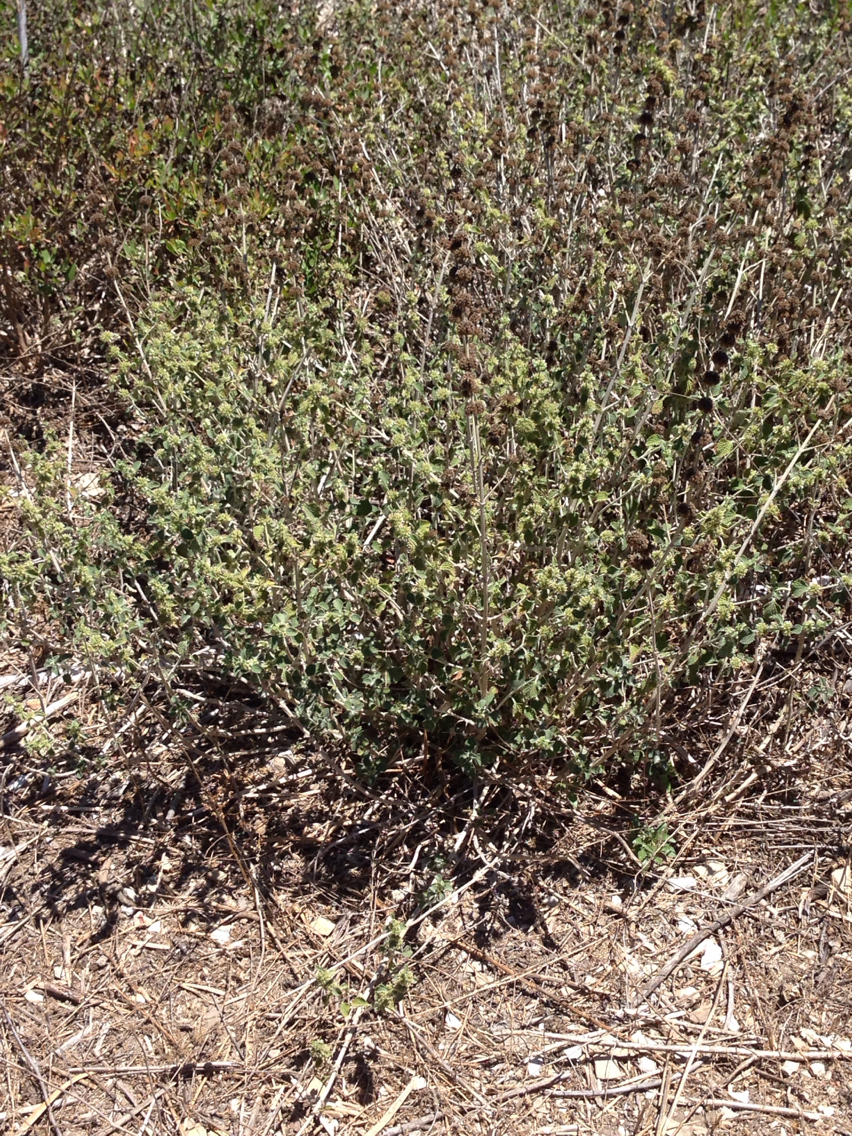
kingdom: Plantae
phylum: Tracheophyta
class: Magnoliopsida
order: Lamiales
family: Lamiaceae
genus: Marrubium
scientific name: Marrubium vulgare
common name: Horehound
